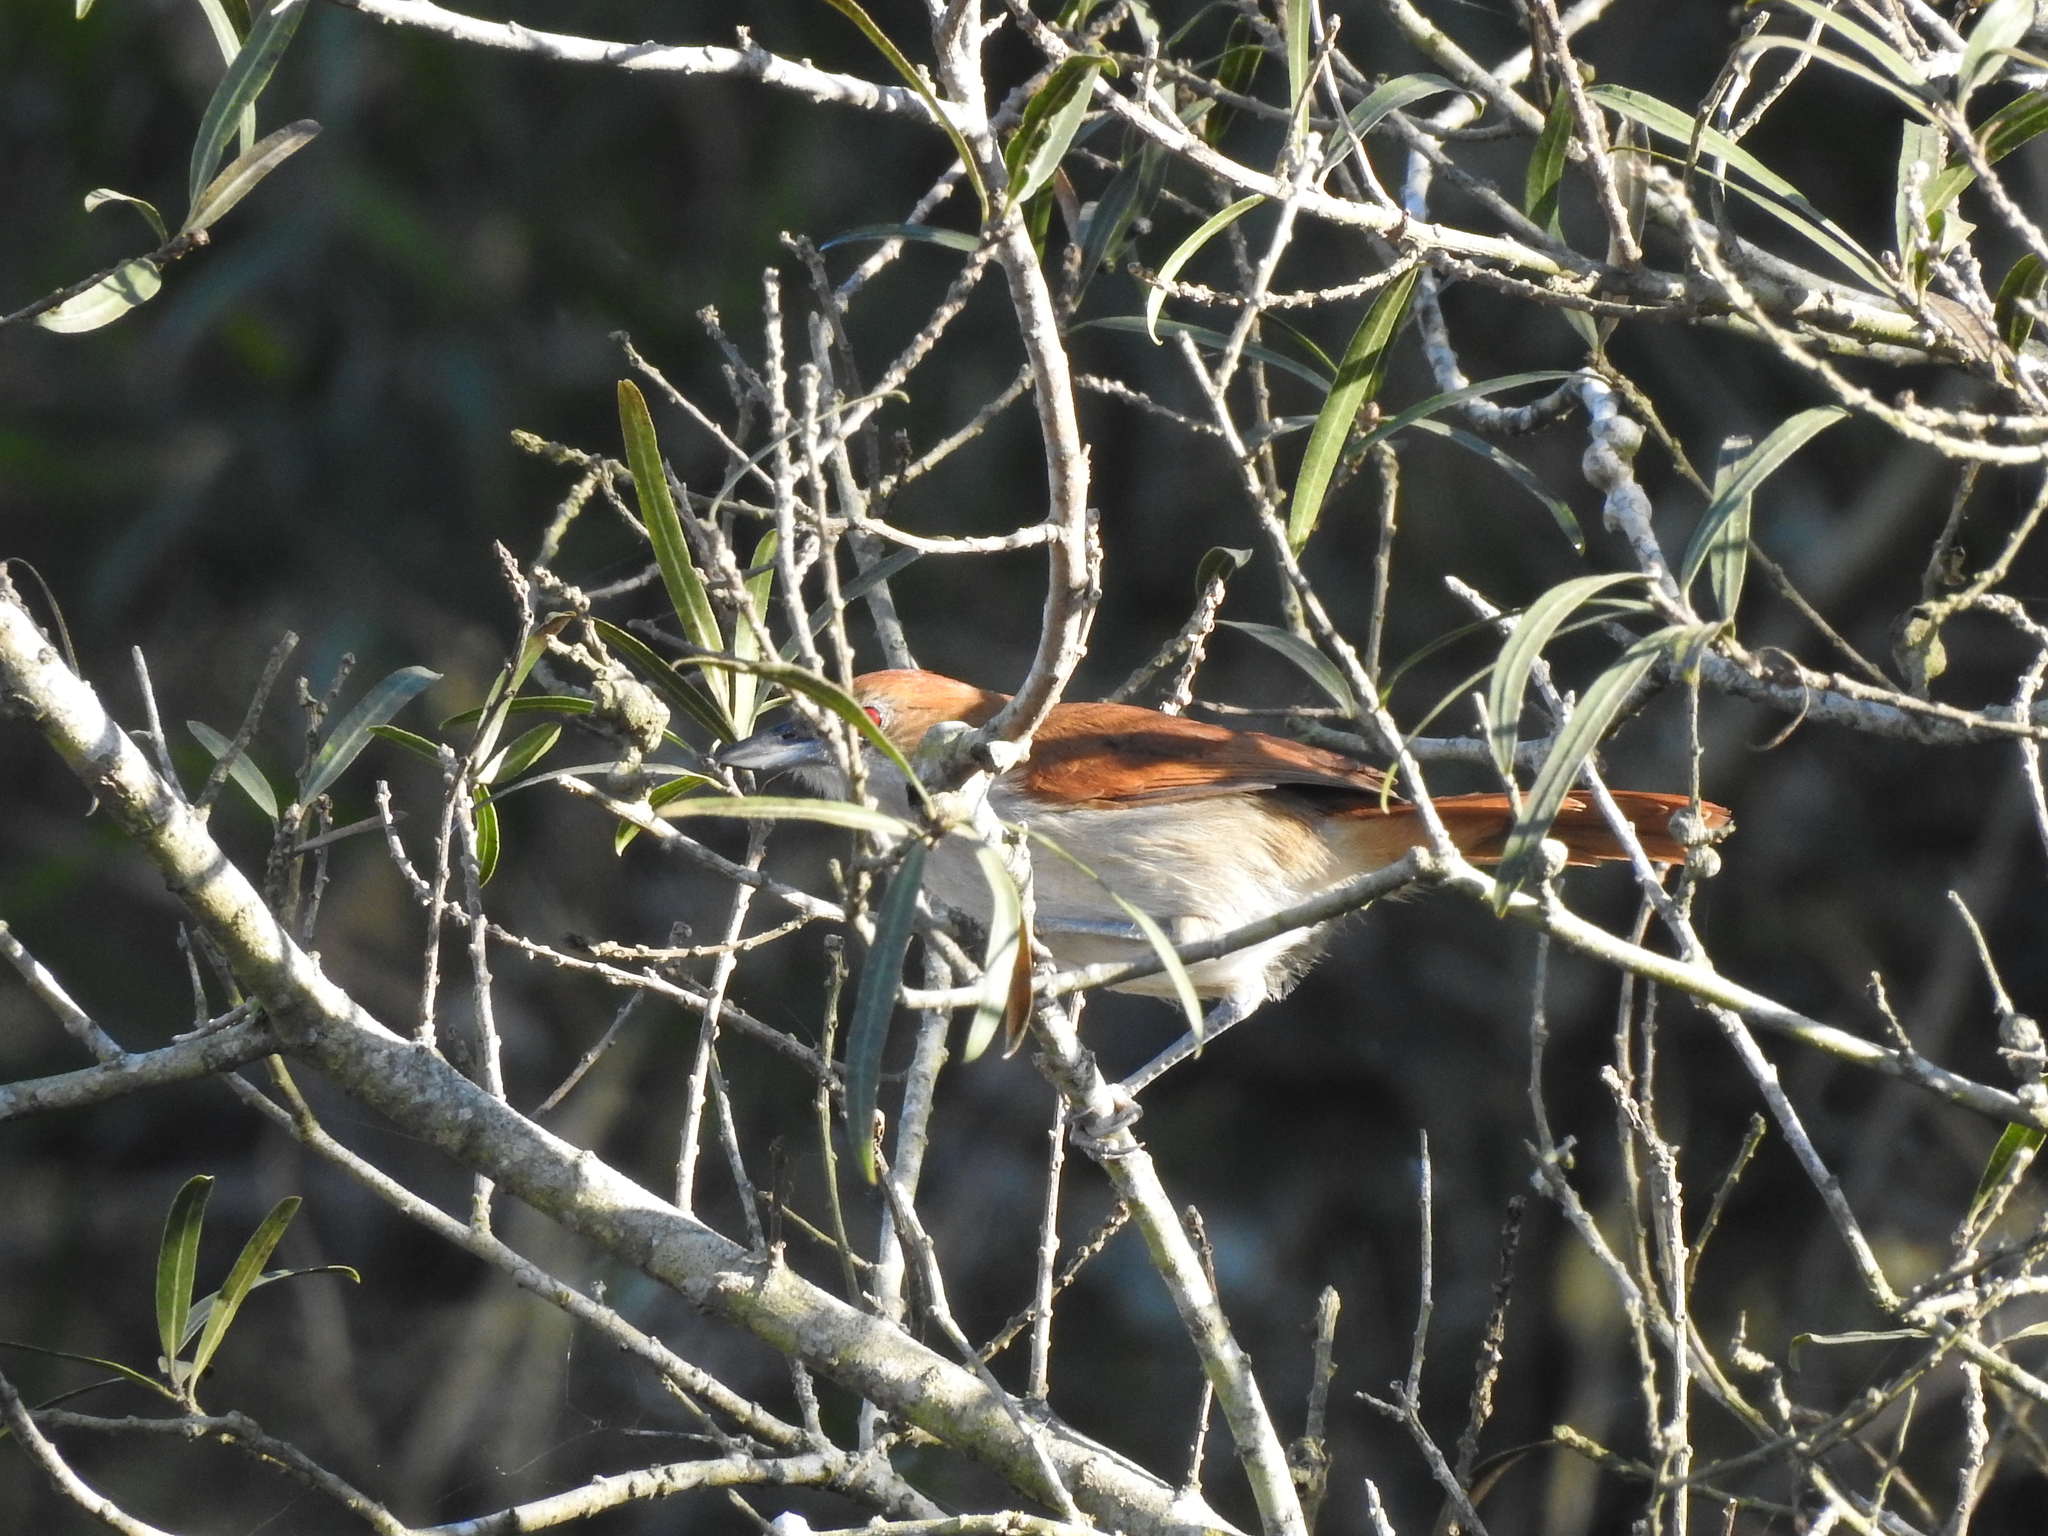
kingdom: Animalia
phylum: Chordata
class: Aves
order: Passeriformes
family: Thamnophilidae
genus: Taraba
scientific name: Taraba major
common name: Great antshrike
